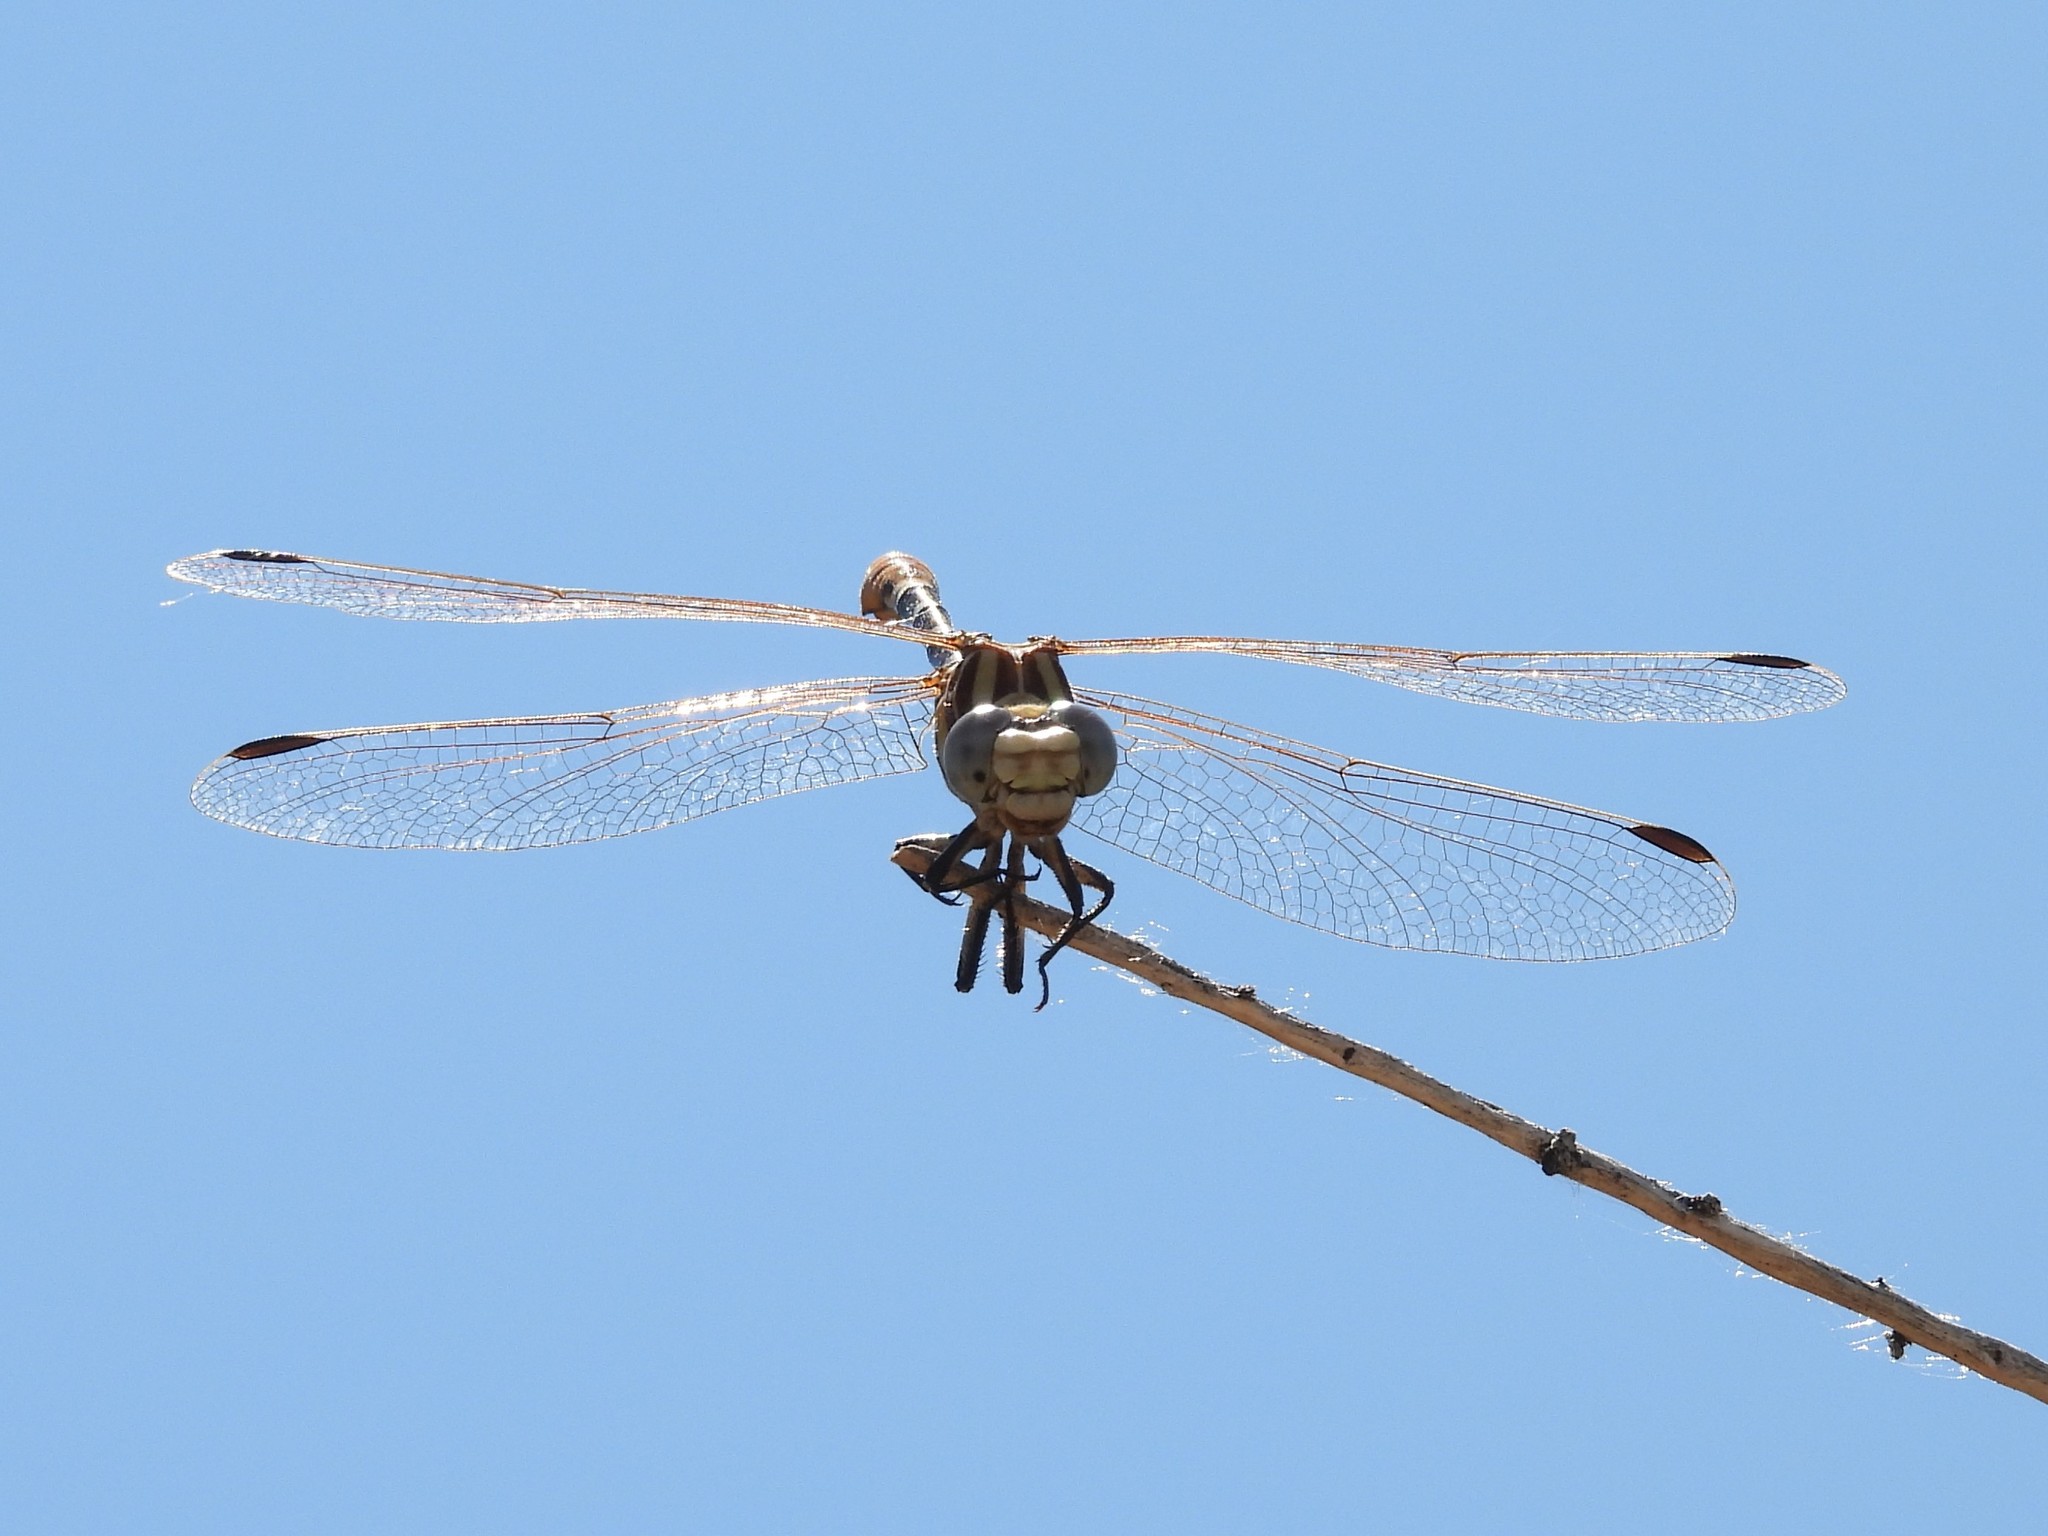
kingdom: Animalia
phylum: Arthropoda
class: Insecta
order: Odonata
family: Gomphidae
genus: Erpetogomphus
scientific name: Erpetogomphus compositus
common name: White-belted ringtail
